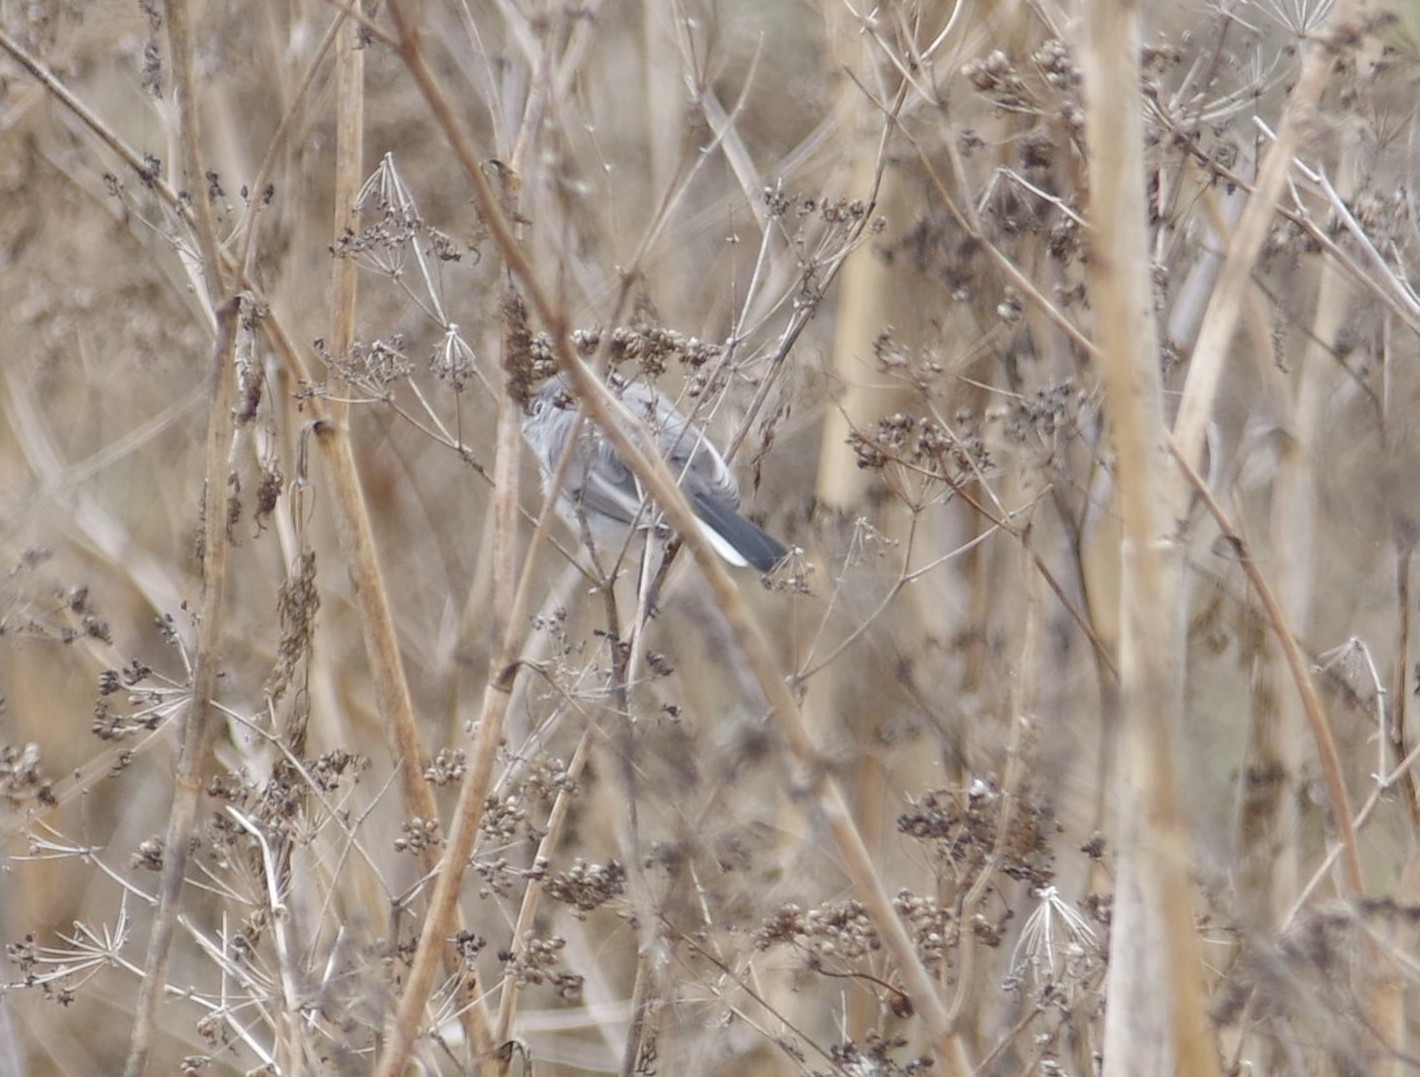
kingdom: Animalia
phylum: Chordata
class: Aves
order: Passeriformes
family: Polioptilidae
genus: Polioptila
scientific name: Polioptila caerulea
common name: Blue-gray gnatcatcher
